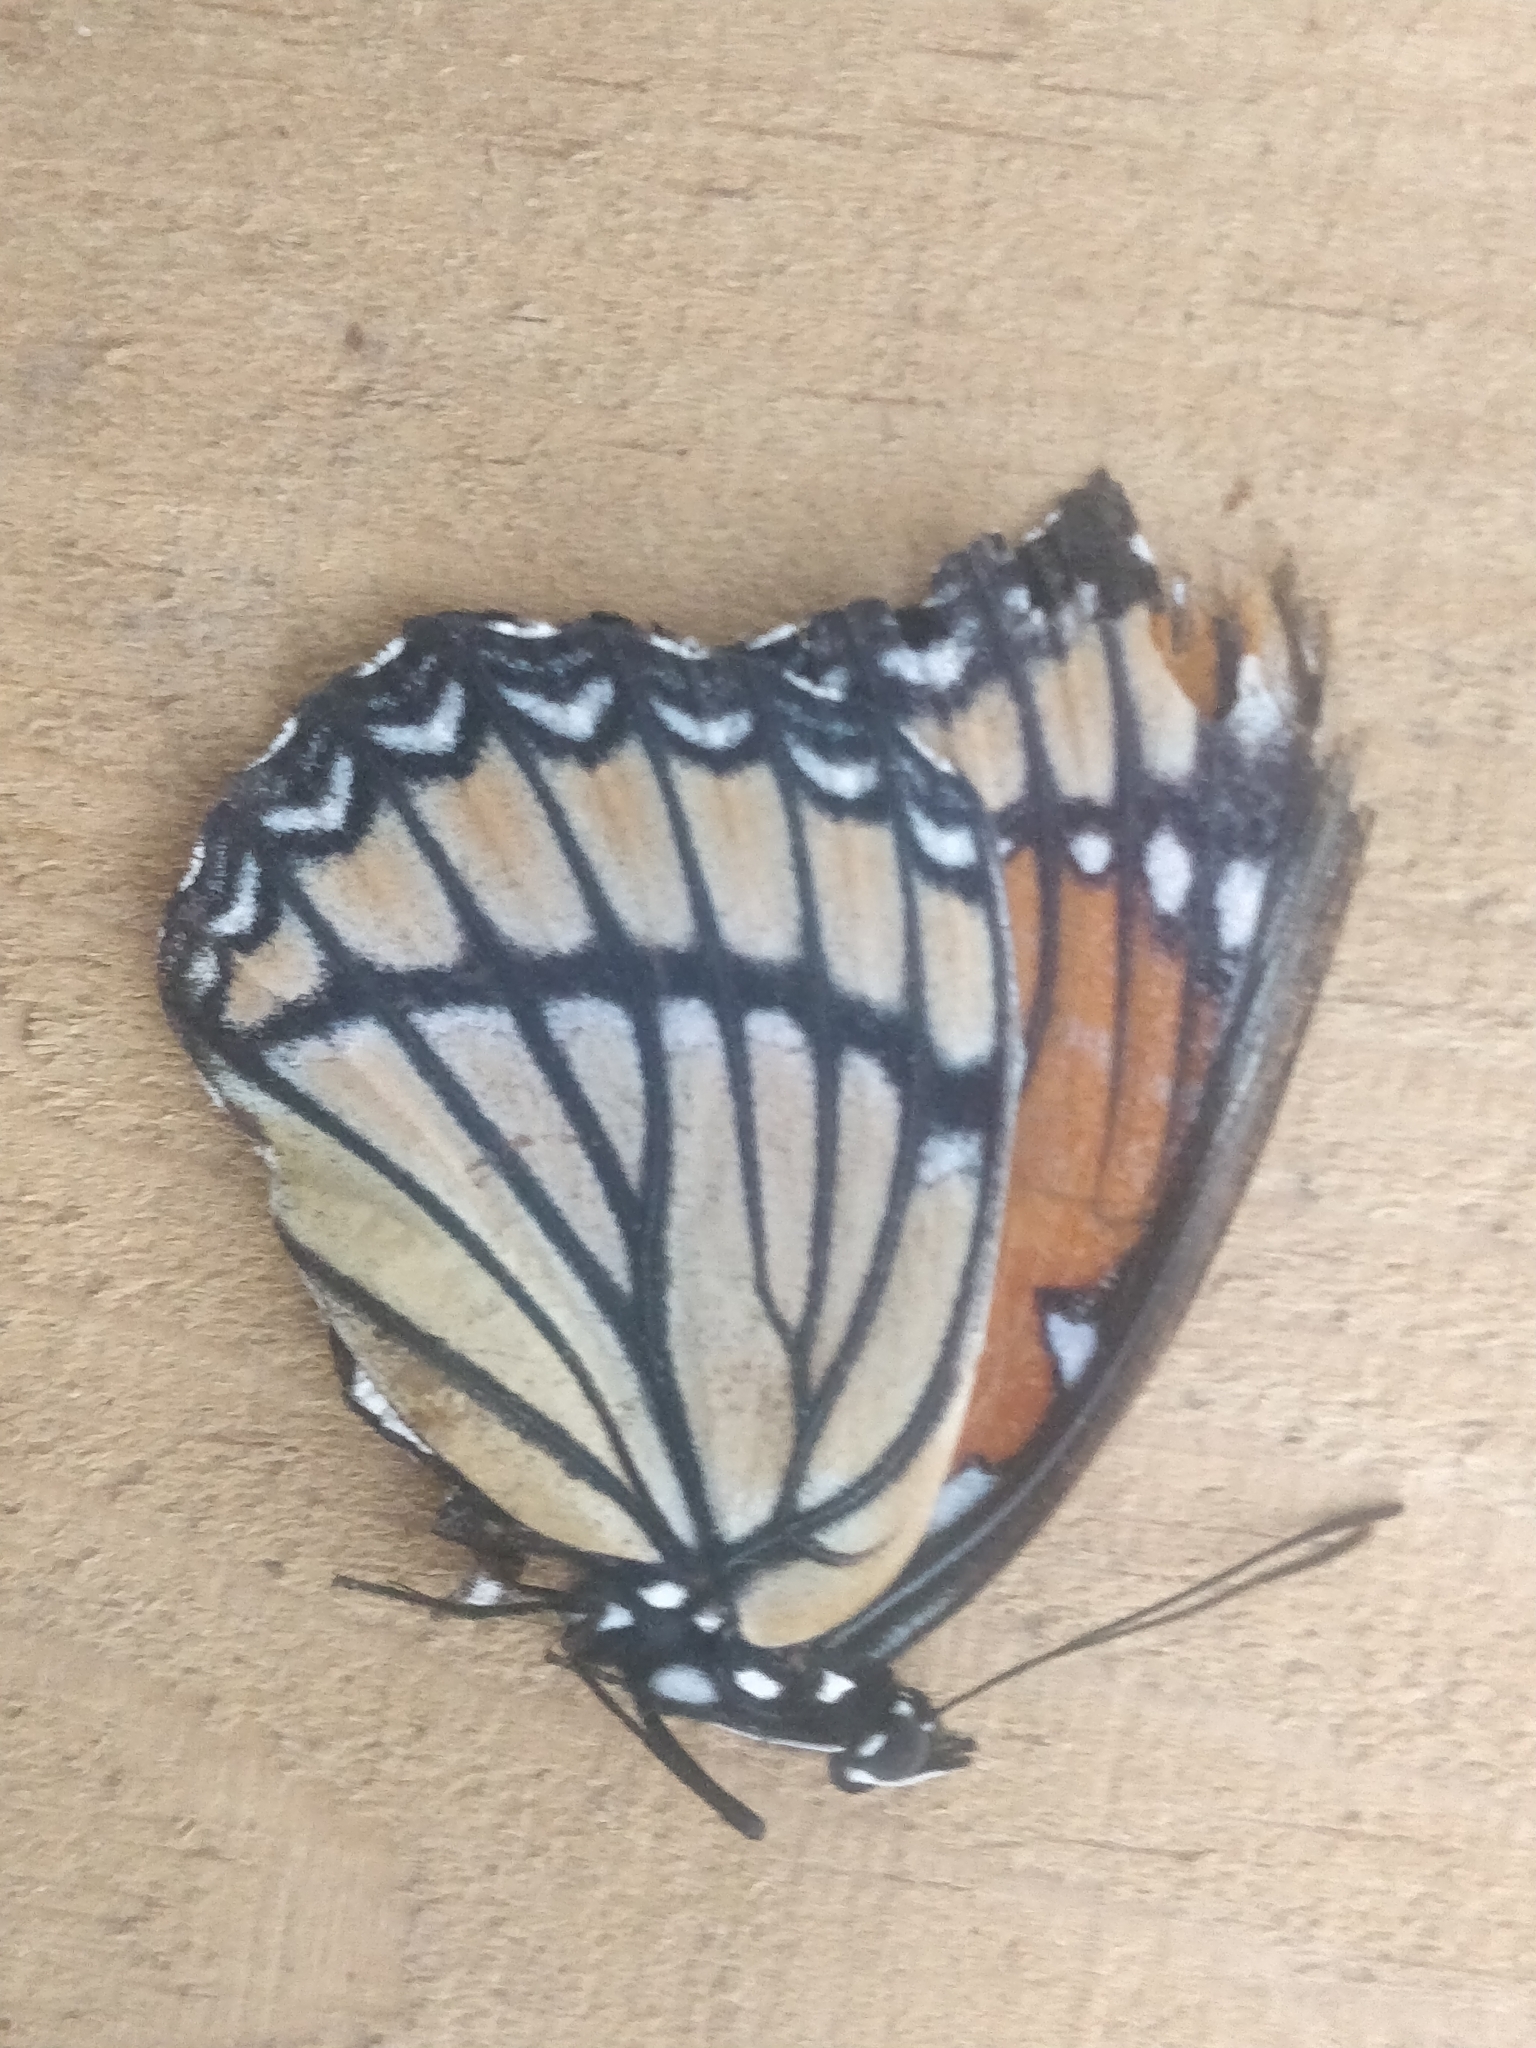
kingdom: Animalia
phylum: Arthropoda
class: Insecta
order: Lepidoptera
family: Nymphalidae
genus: Limenitis
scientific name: Limenitis archippus
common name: Viceroy
